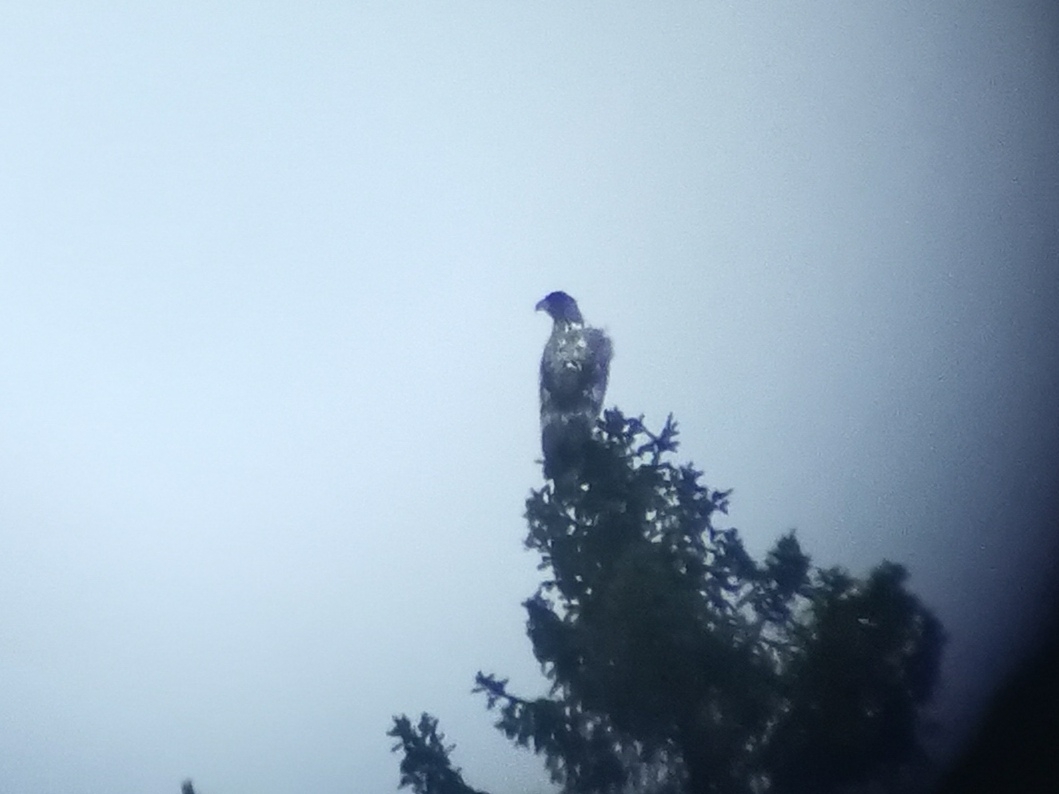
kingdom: Animalia
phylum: Chordata
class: Aves
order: Accipitriformes
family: Accipitridae
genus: Haliaeetus
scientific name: Haliaeetus albicilla
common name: White-tailed eagle
